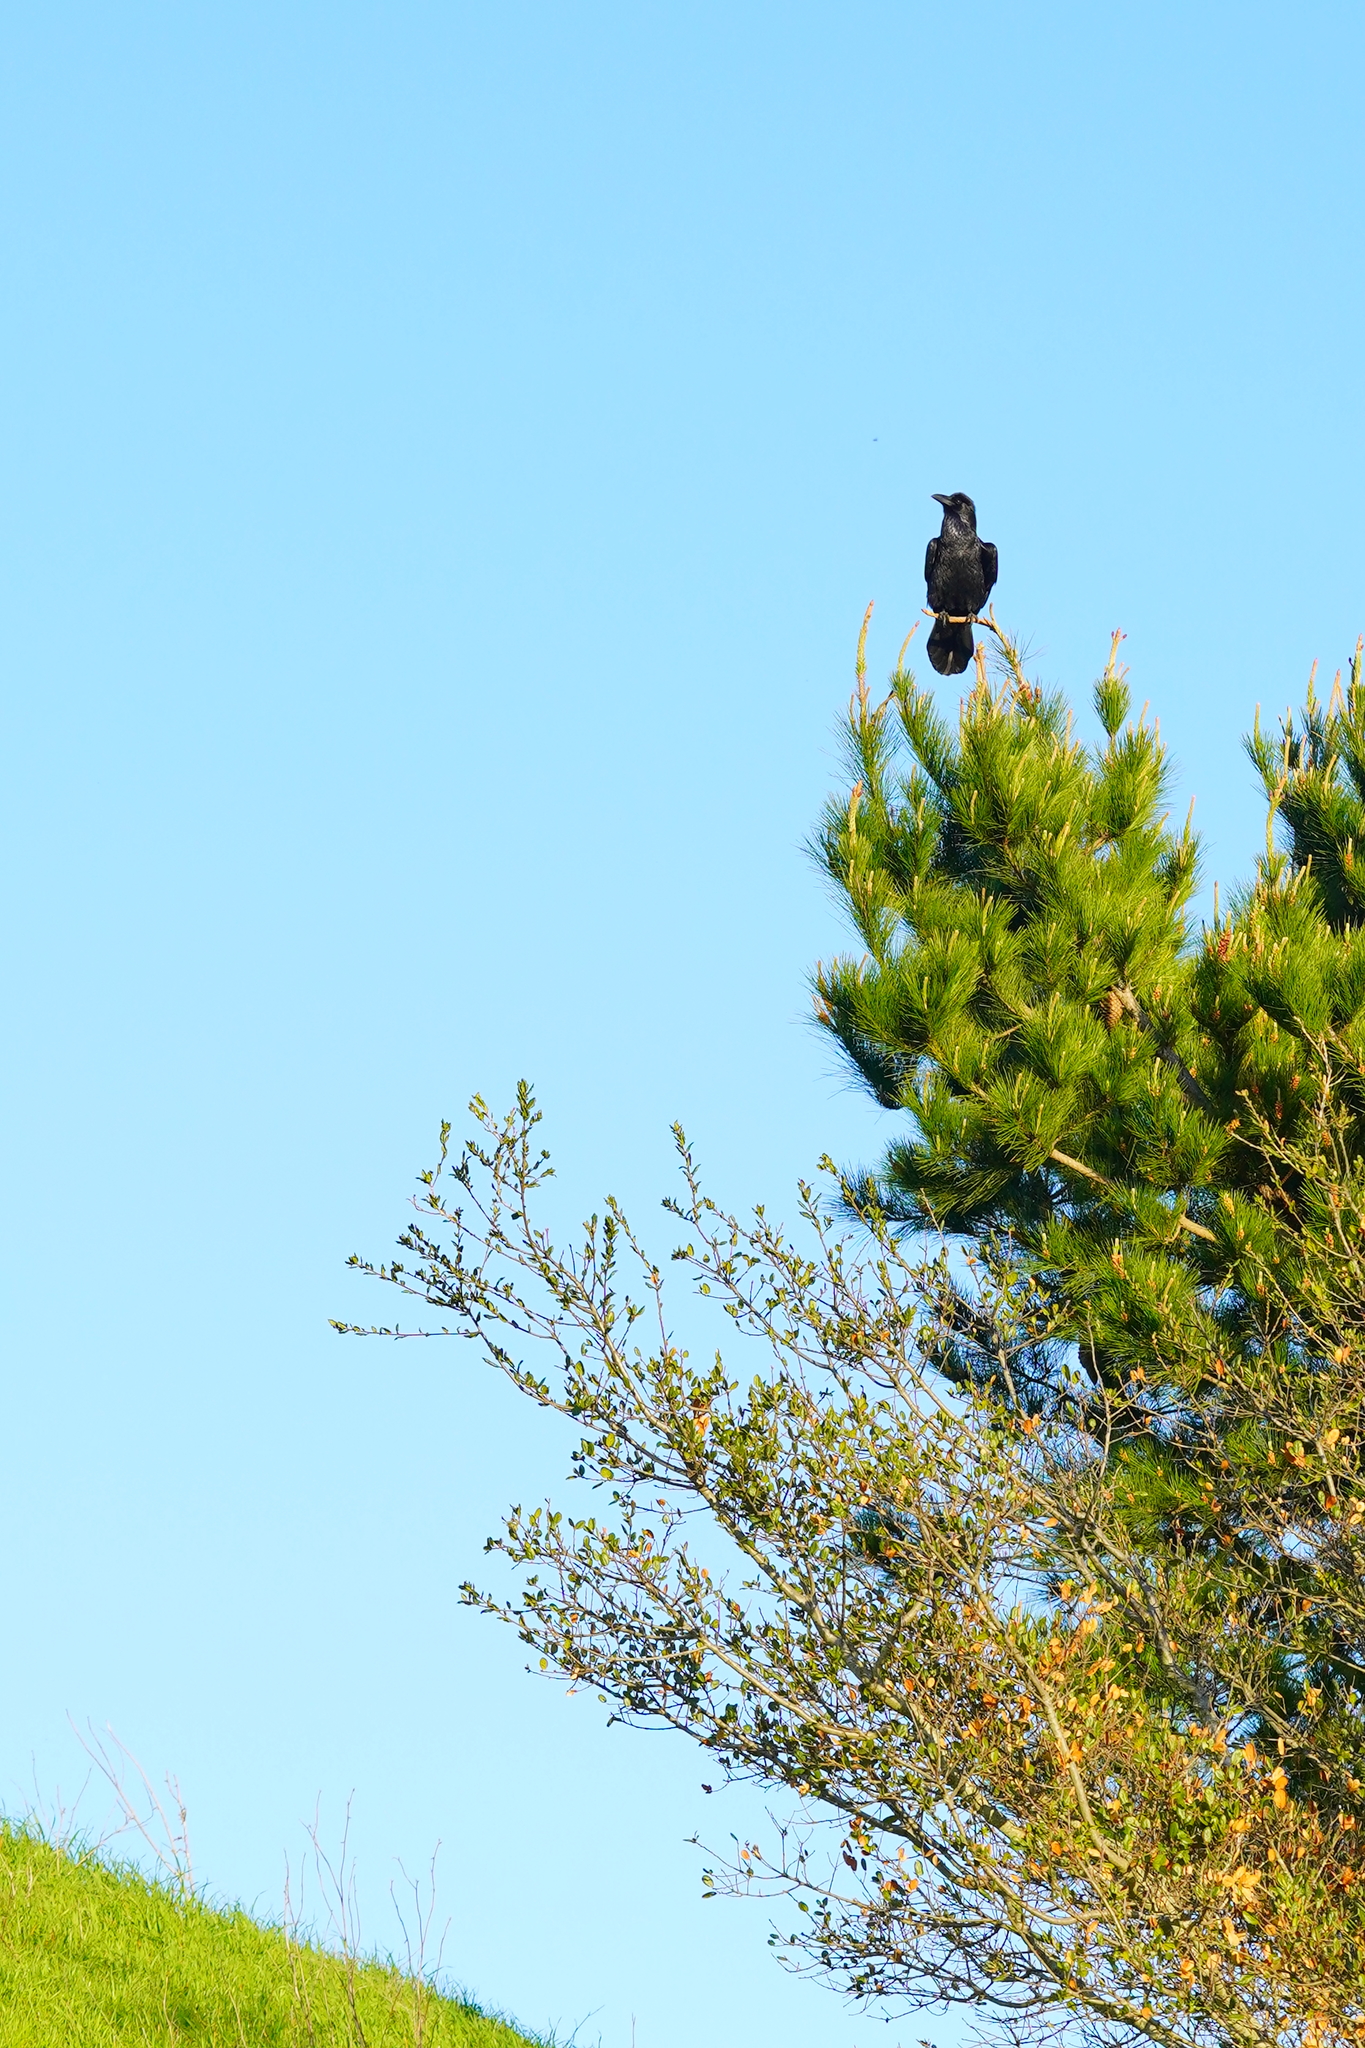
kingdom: Animalia
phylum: Chordata
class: Aves
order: Passeriformes
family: Corvidae
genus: Corvus
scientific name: Corvus corax
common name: Common raven
